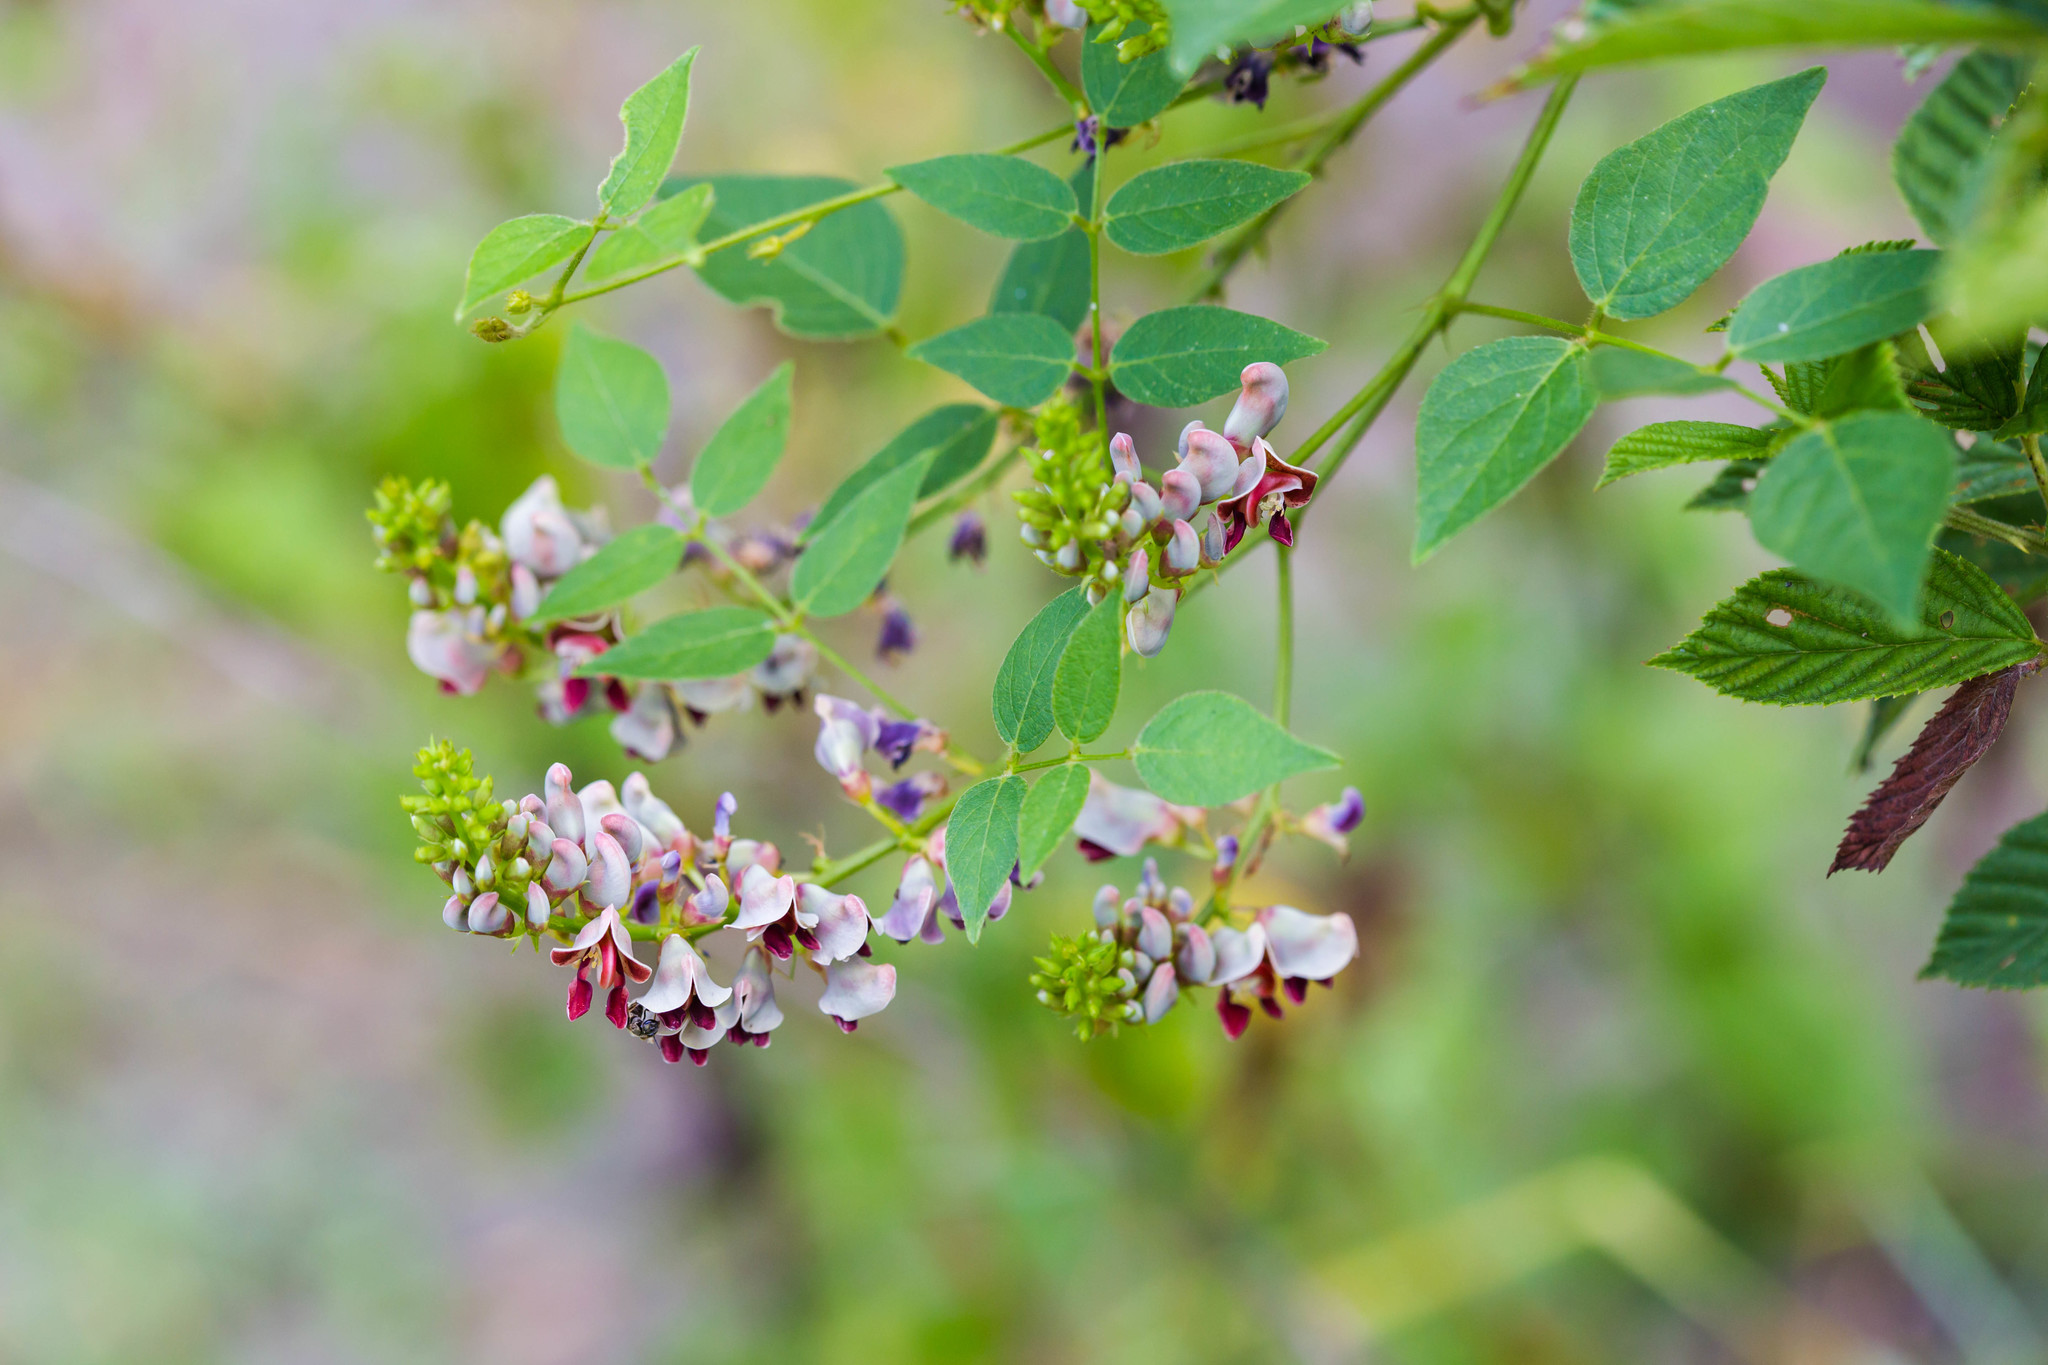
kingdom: Plantae
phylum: Tracheophyta
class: Magnoliopsida
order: Fabales
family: Fabaceae
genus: Apios
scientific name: Apios americana
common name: American potato-bean
